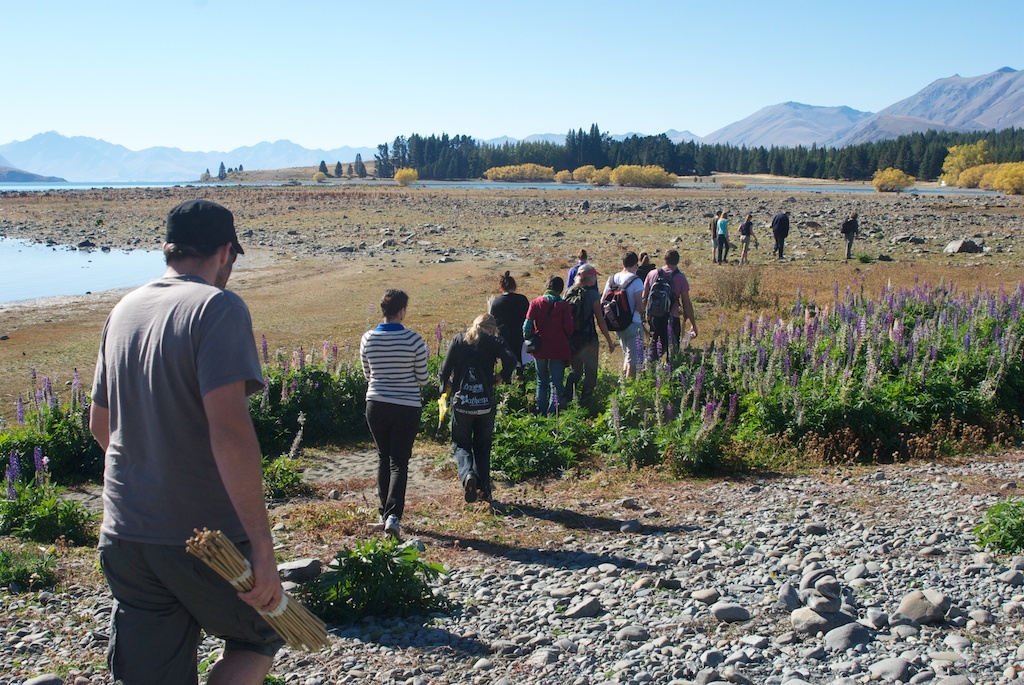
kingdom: Plantae
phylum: Tracheophyta
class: Magnoliopsida
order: Fabales
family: Fabaceae
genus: Lupinus
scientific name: Lupinus polyphyllus
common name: Garden lupin
